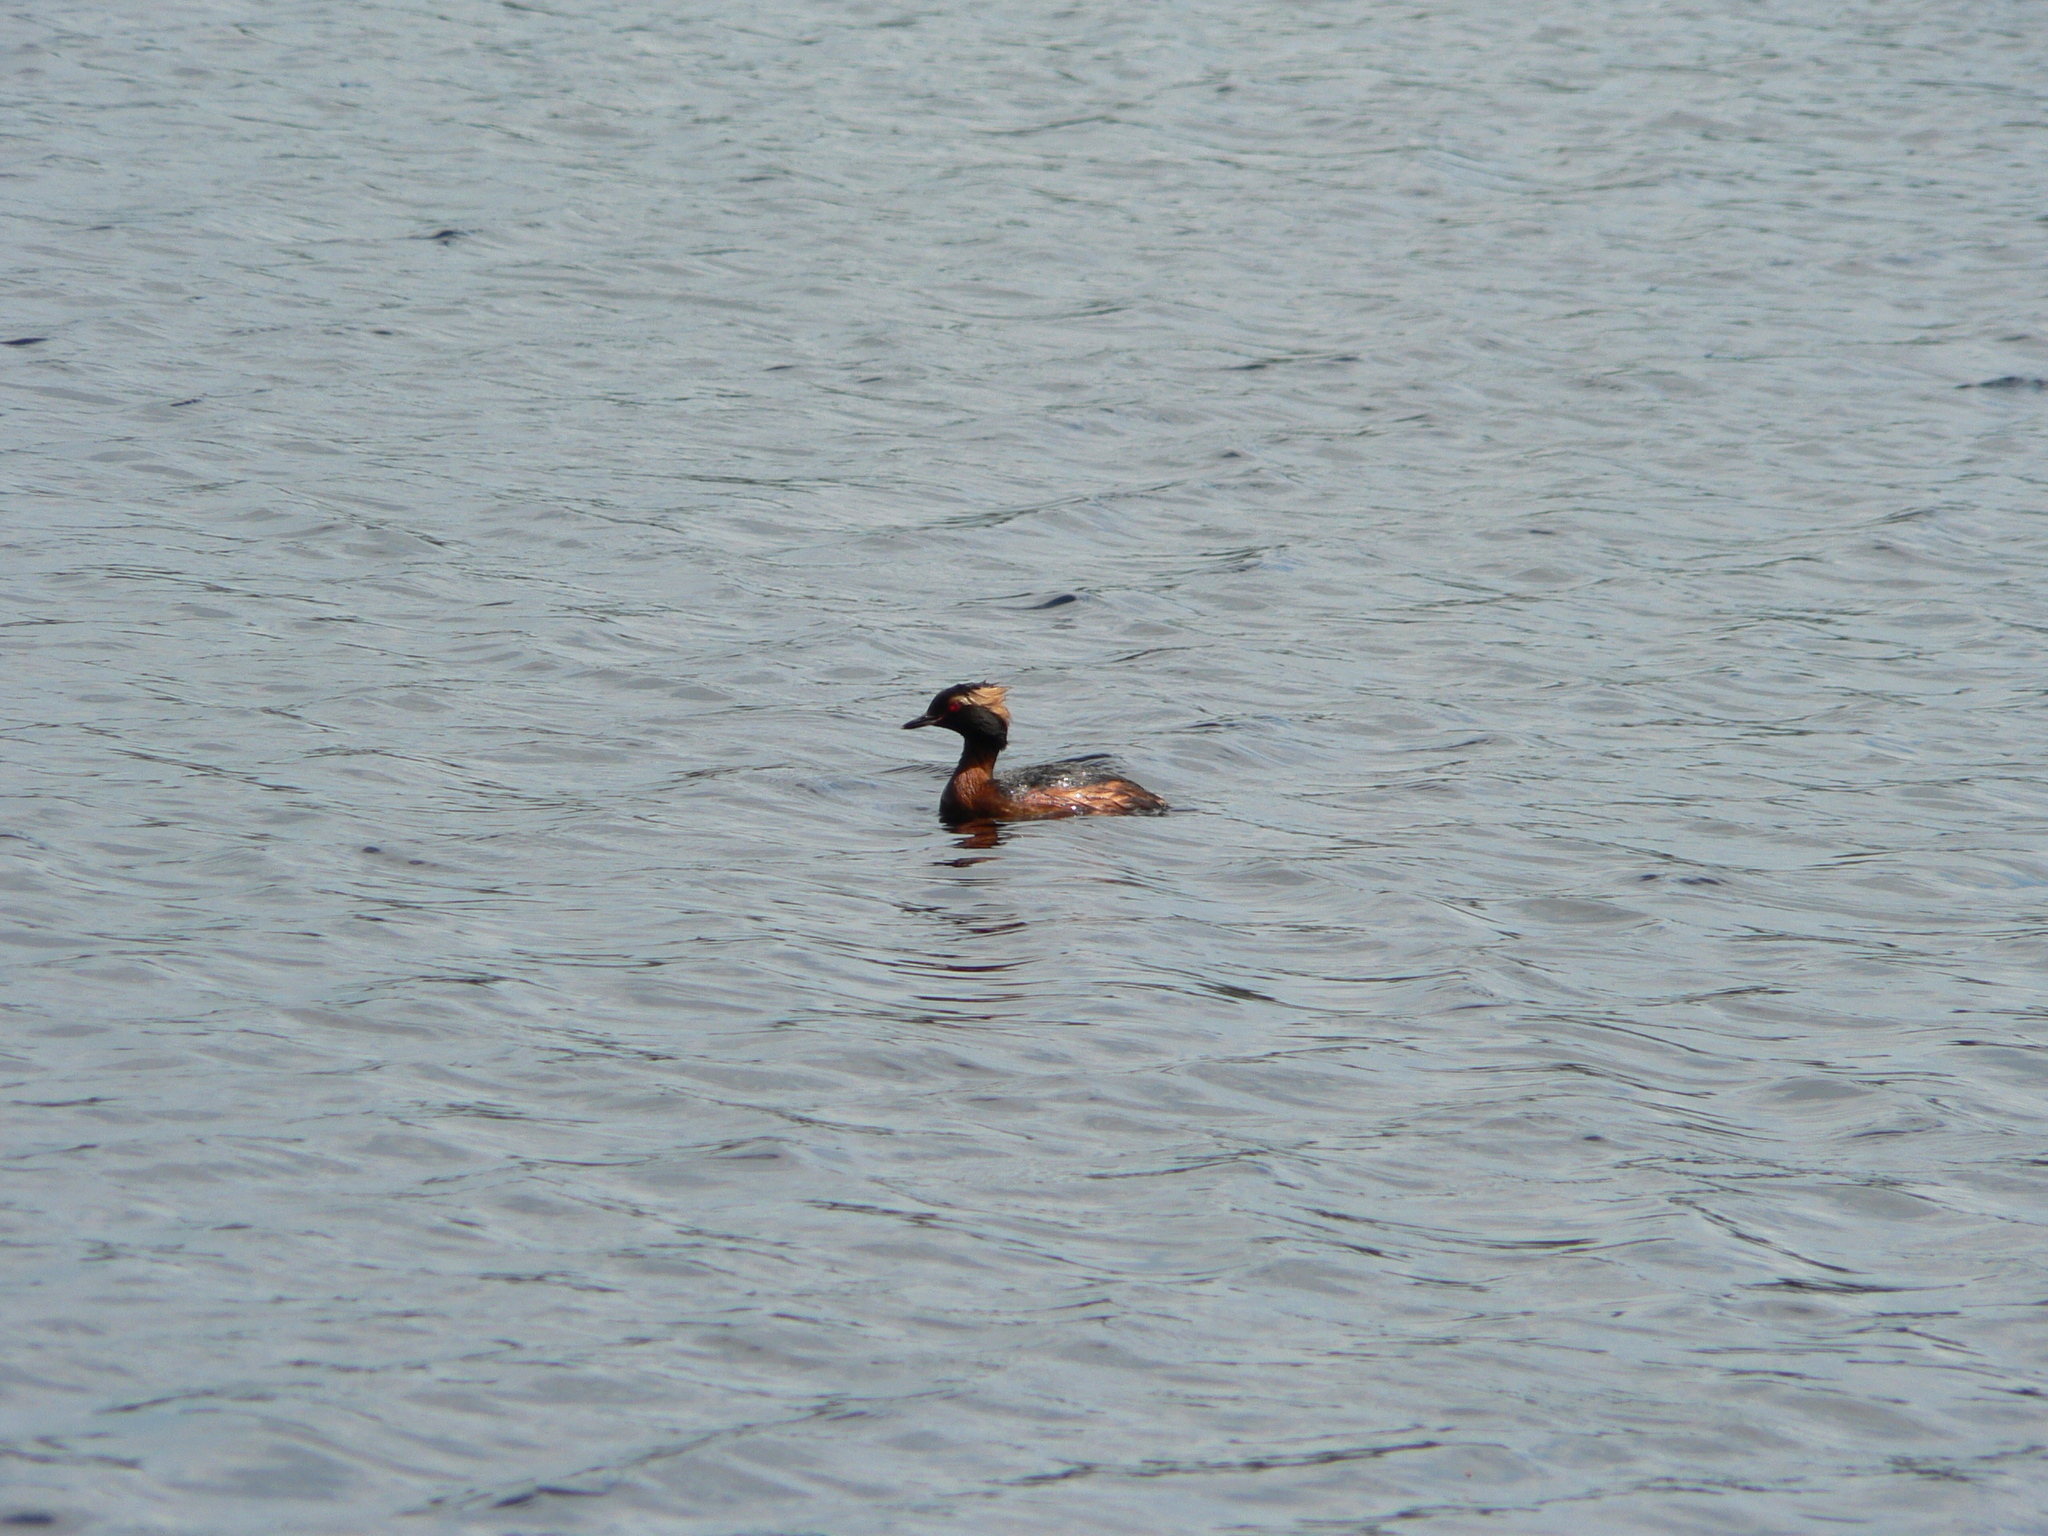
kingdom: Animalia
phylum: Chordata
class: Aves
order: Podicipediformes
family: Podicipedidae
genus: Podiceps
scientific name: Podiceps auritus
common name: Horned grebe
